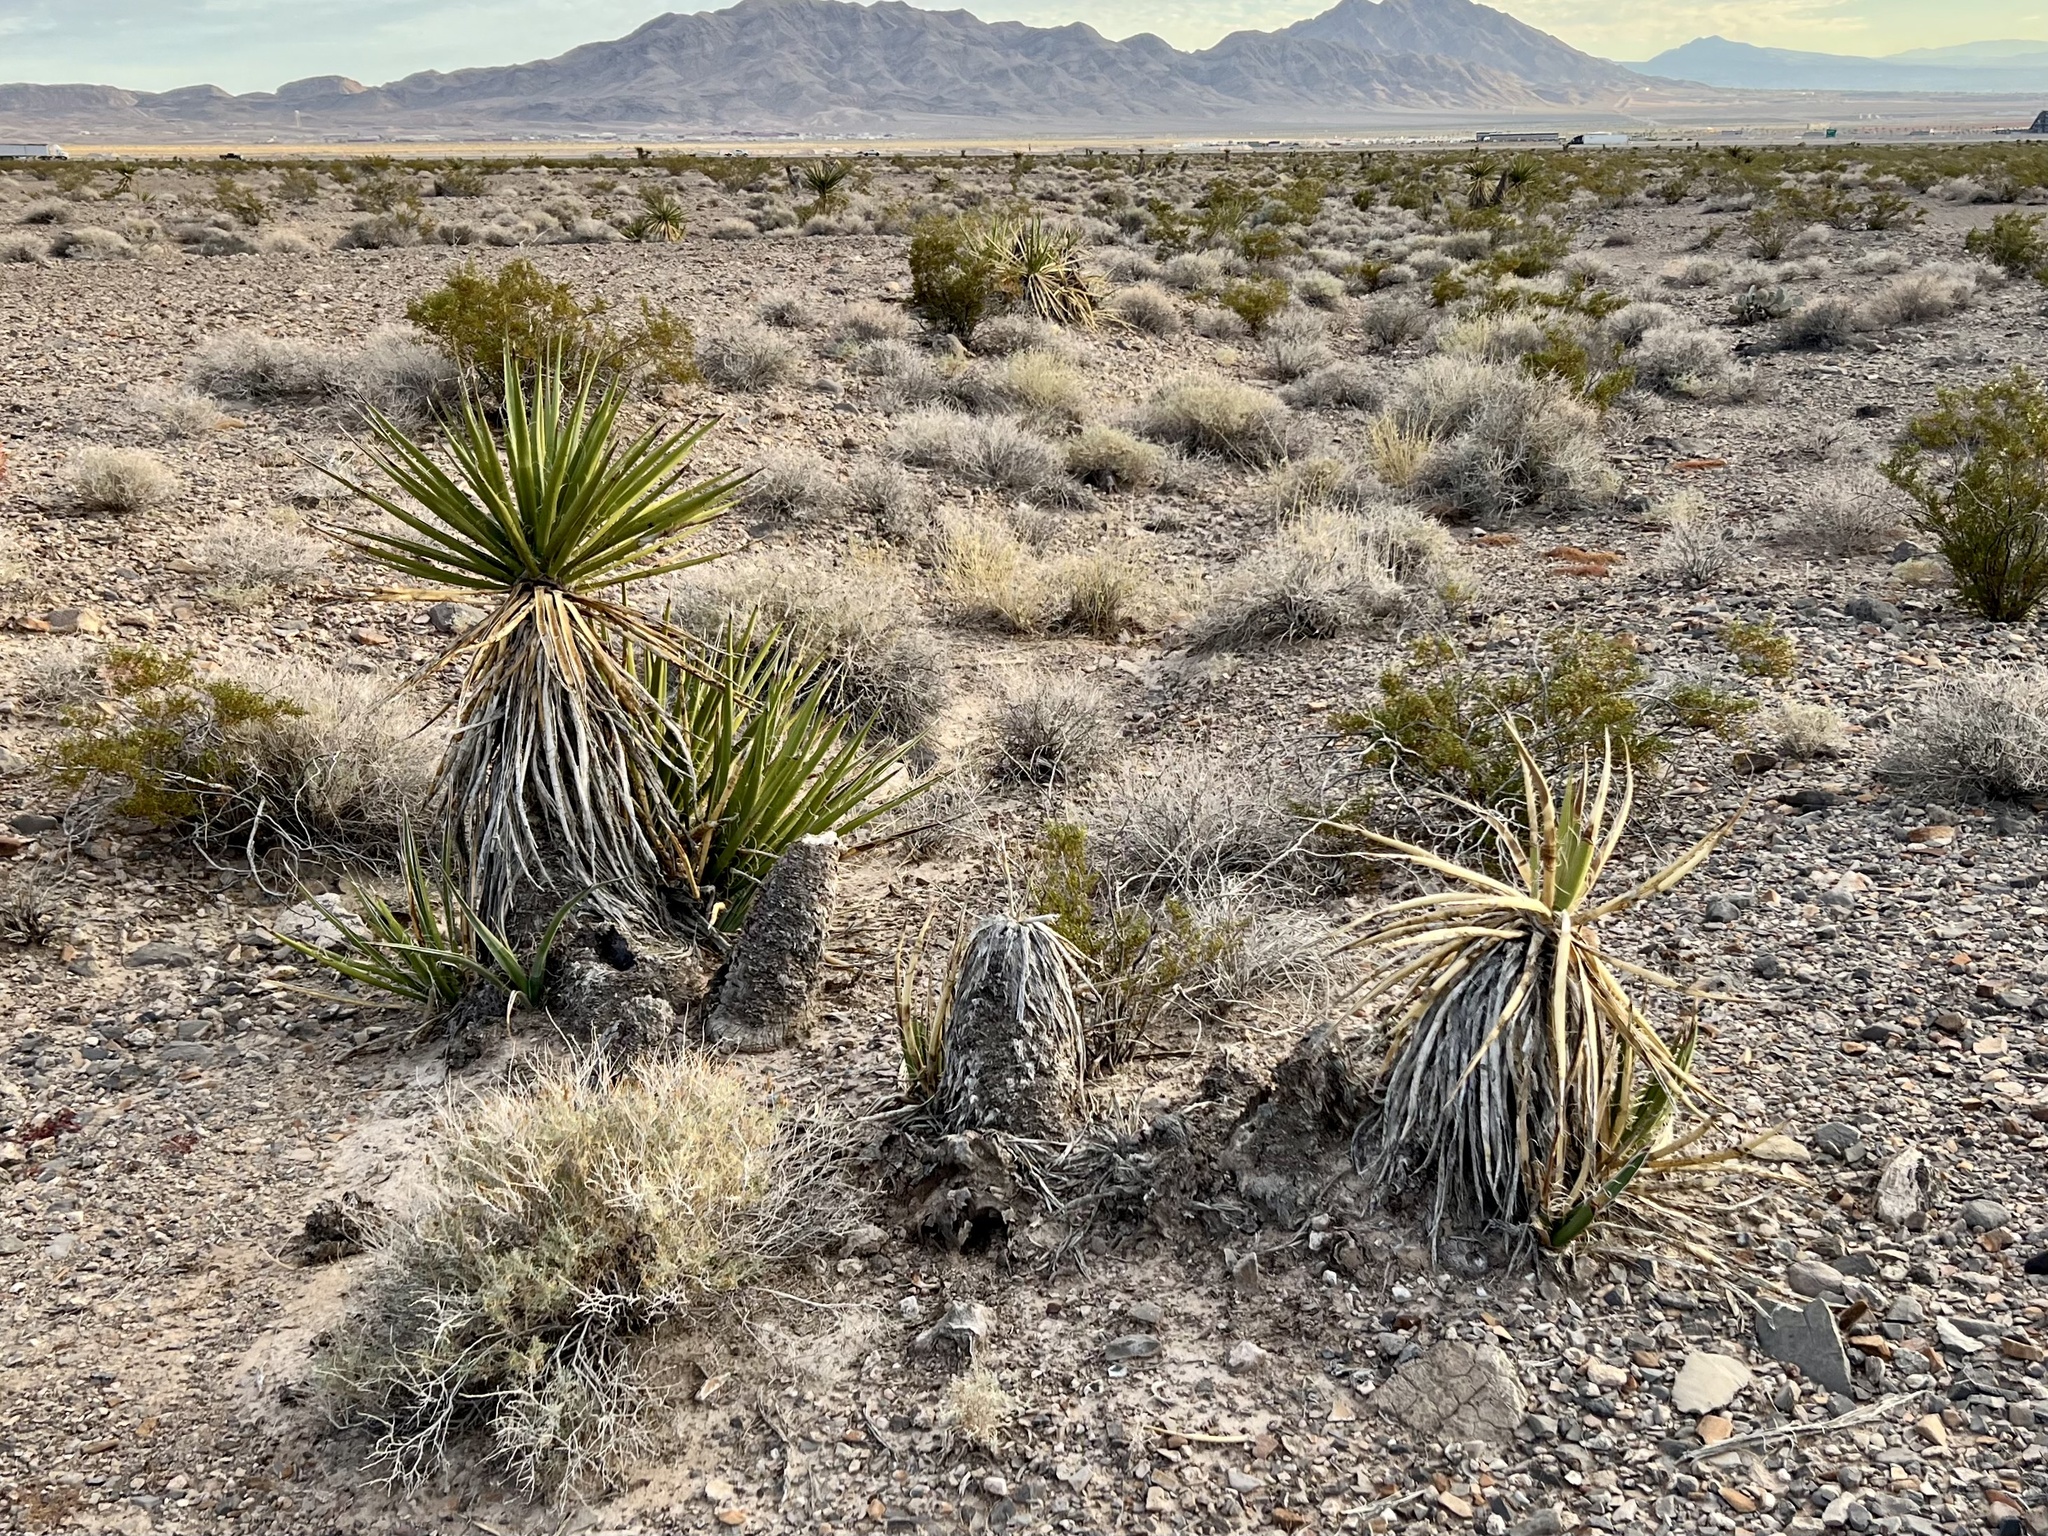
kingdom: Plantae
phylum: Tracheophyta
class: Liliopsida
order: Asparagales
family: Asparagaceae
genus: Yucca
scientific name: Yucca schidigera
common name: Mojave yucca
